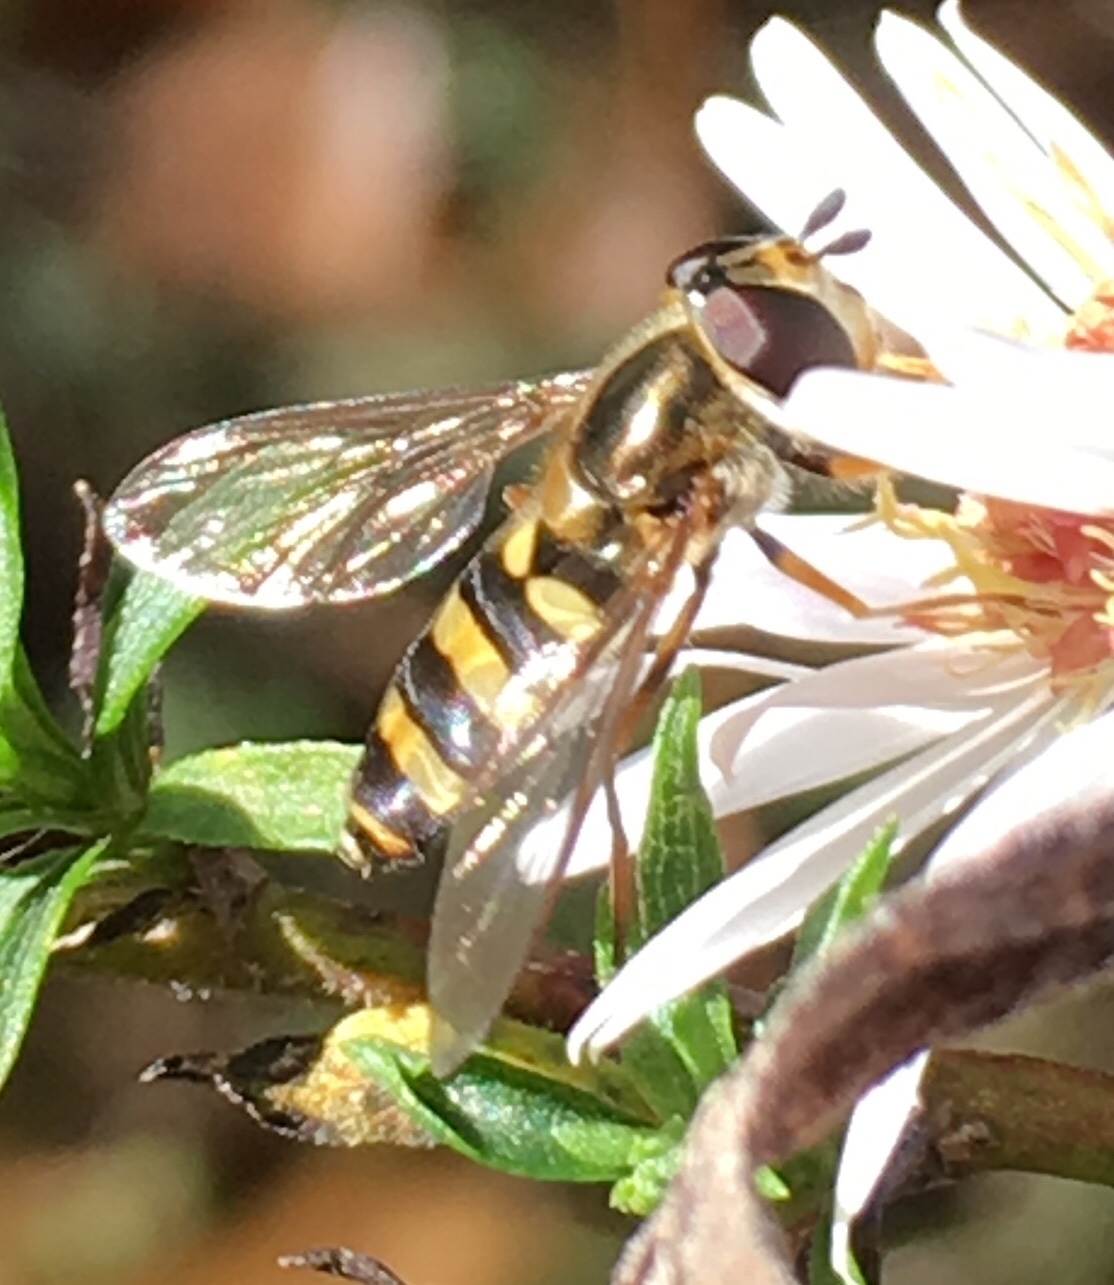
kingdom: Animalia
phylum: Arthropoda
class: Insecta
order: Diptera
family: Syrphidae
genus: Eupeodes
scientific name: Eupeodes
